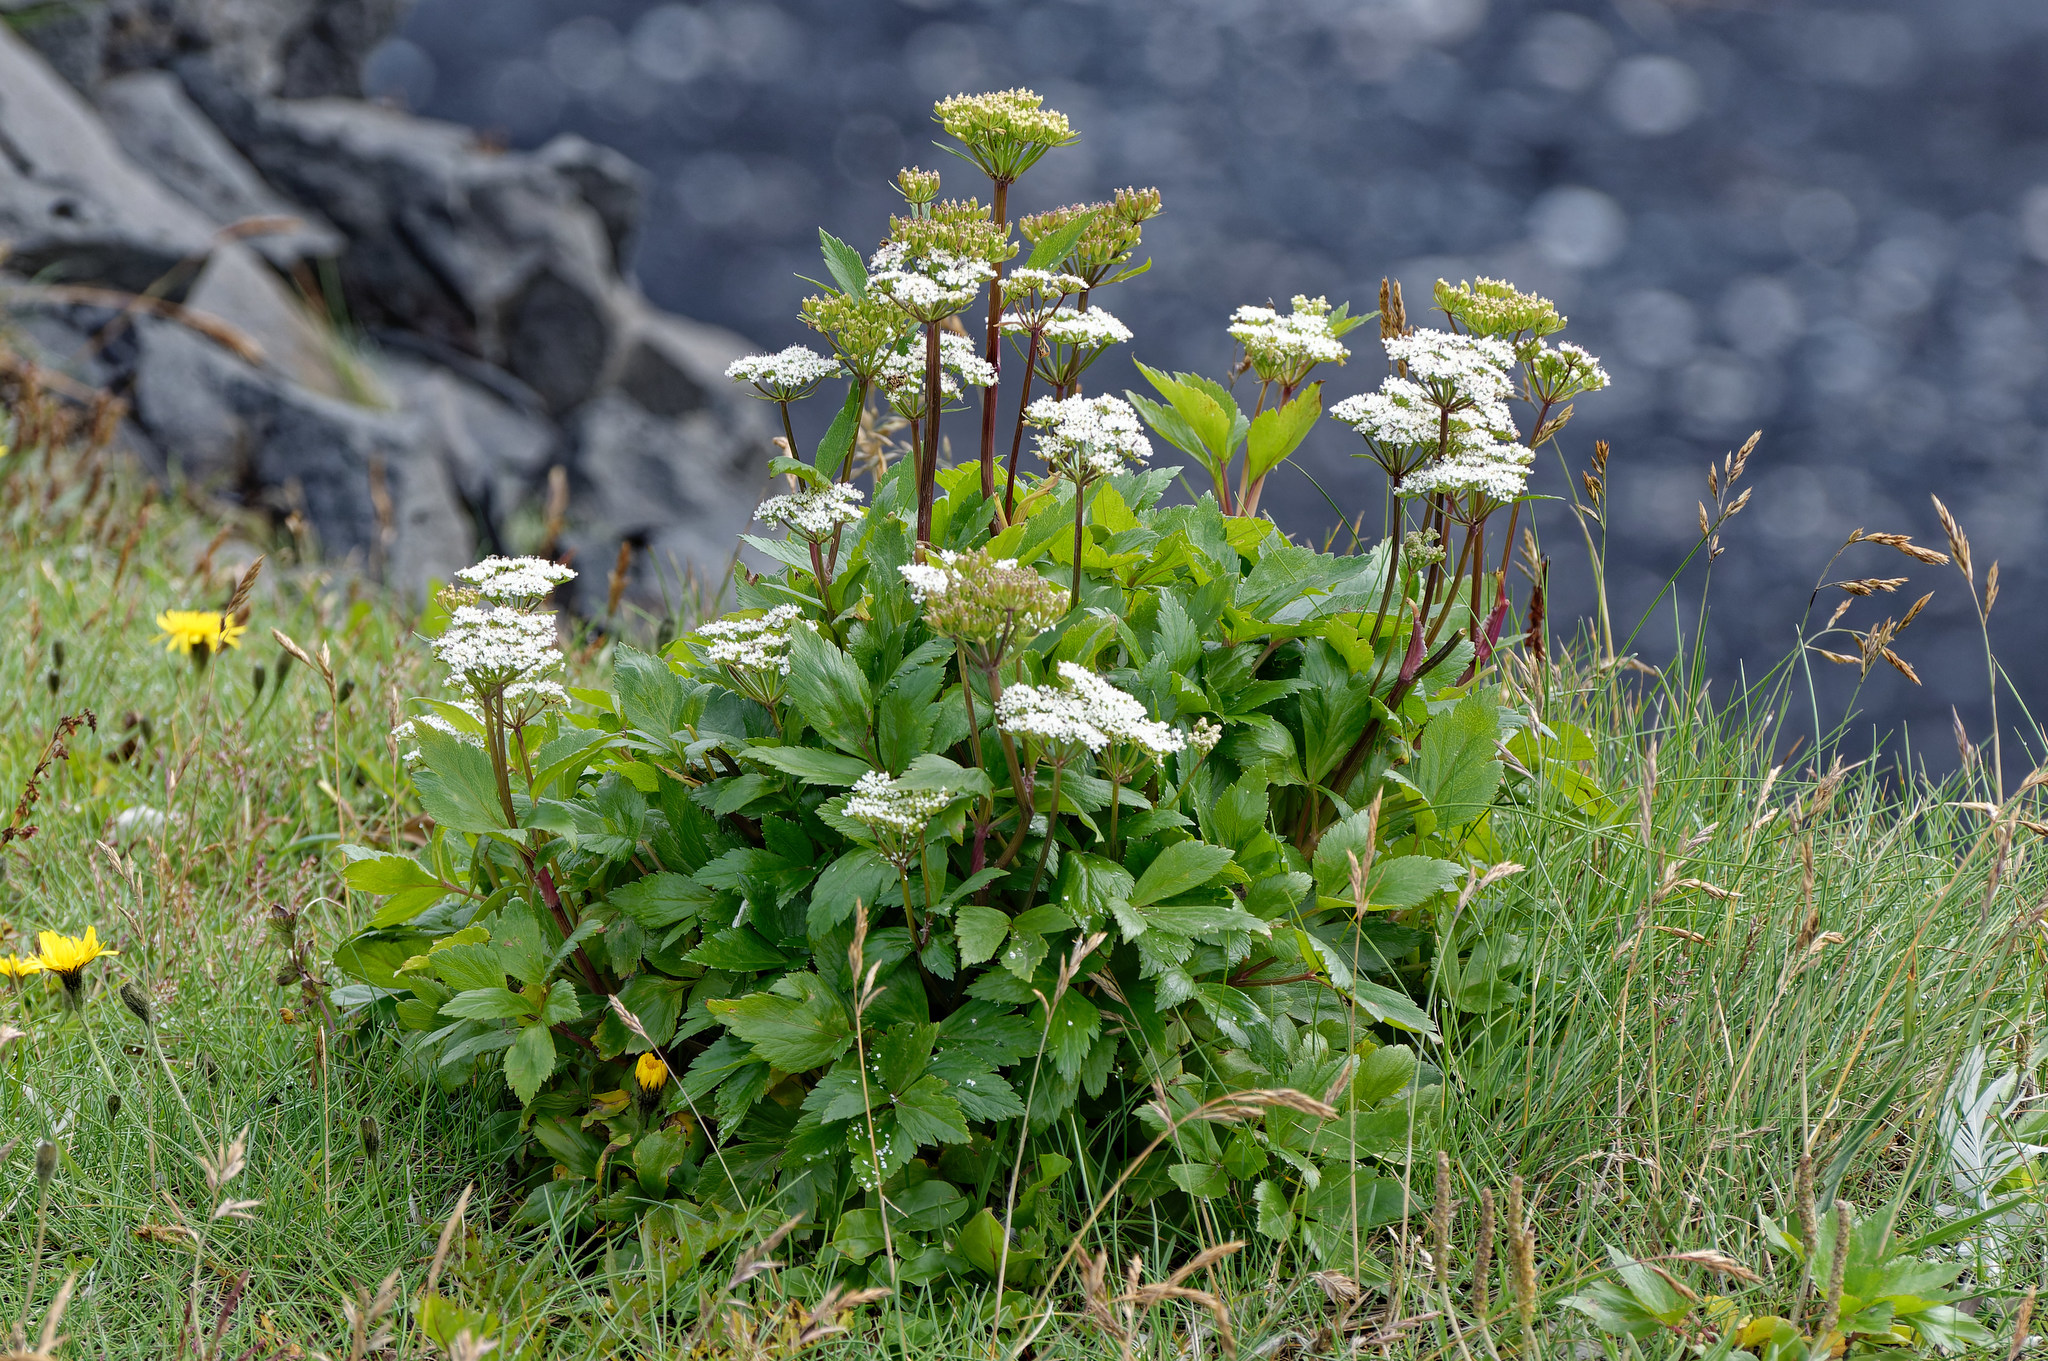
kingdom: Plantae
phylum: Tracheophyta
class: Magnoliopsida
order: Apiales
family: Apiaceae
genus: Ligusticum
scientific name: Ligusticum scothicum
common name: Beach lovage
